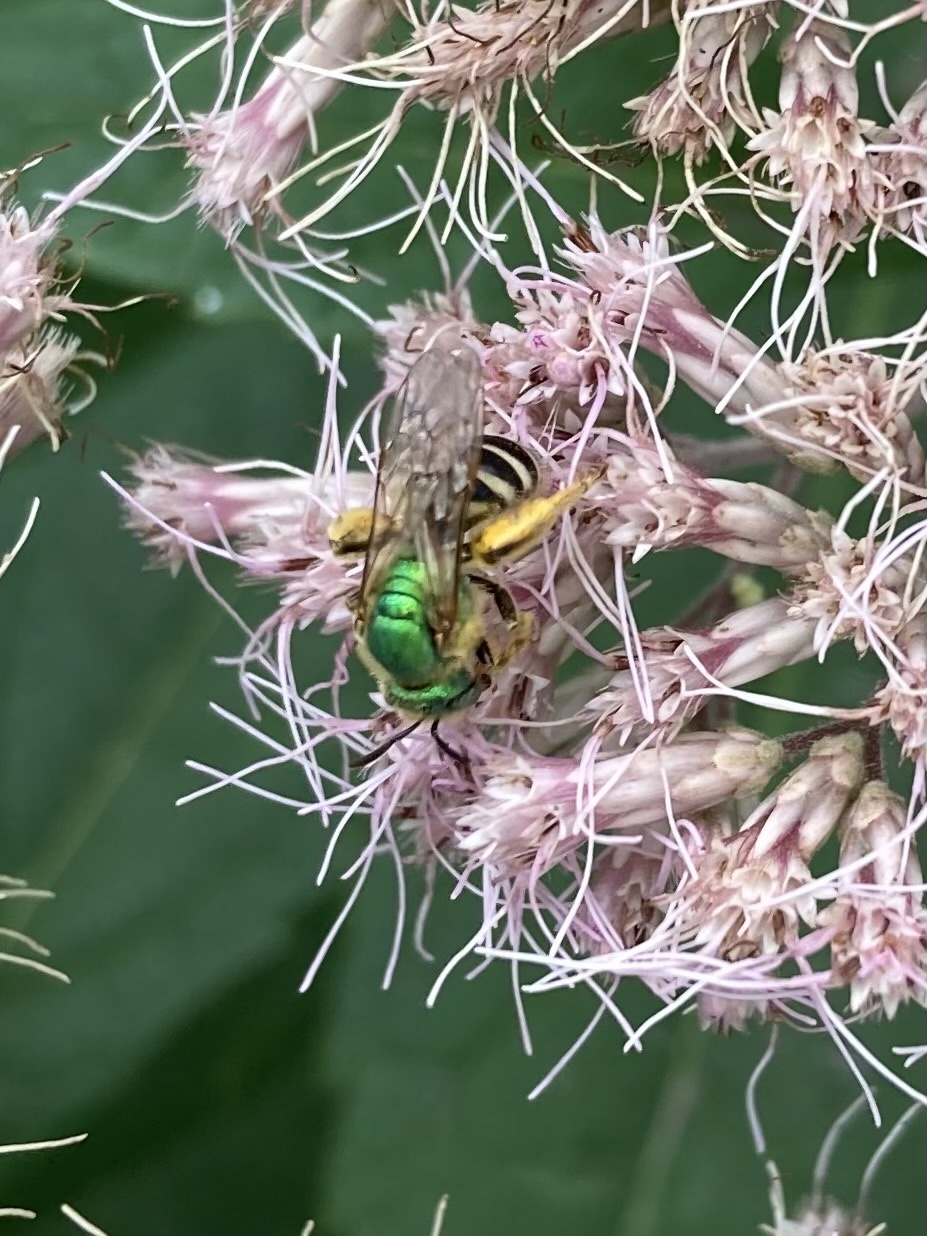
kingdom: Animalia
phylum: Arthropoda
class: Insecta
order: Hymenoptera
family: Halictidae
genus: Agapostemon
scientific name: Agapostemon virescens
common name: Bicolored striped sweat bee
